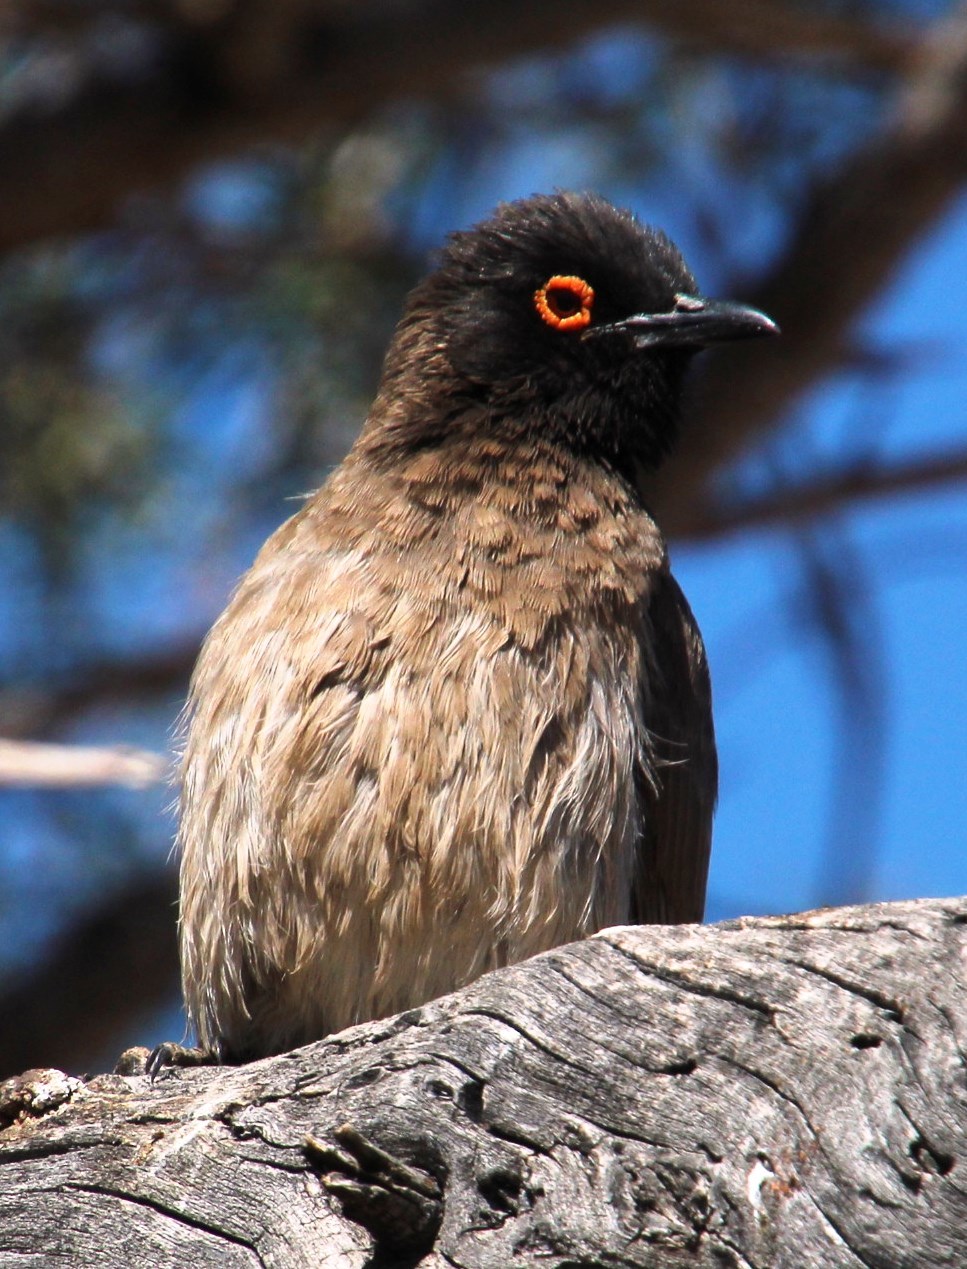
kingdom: Animalia
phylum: Chordata
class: Aves
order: Passeriformes
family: Pycnonotidae
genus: Pycnonotus
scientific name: Pycnonotus nigricans
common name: African red-eyed bulbul
